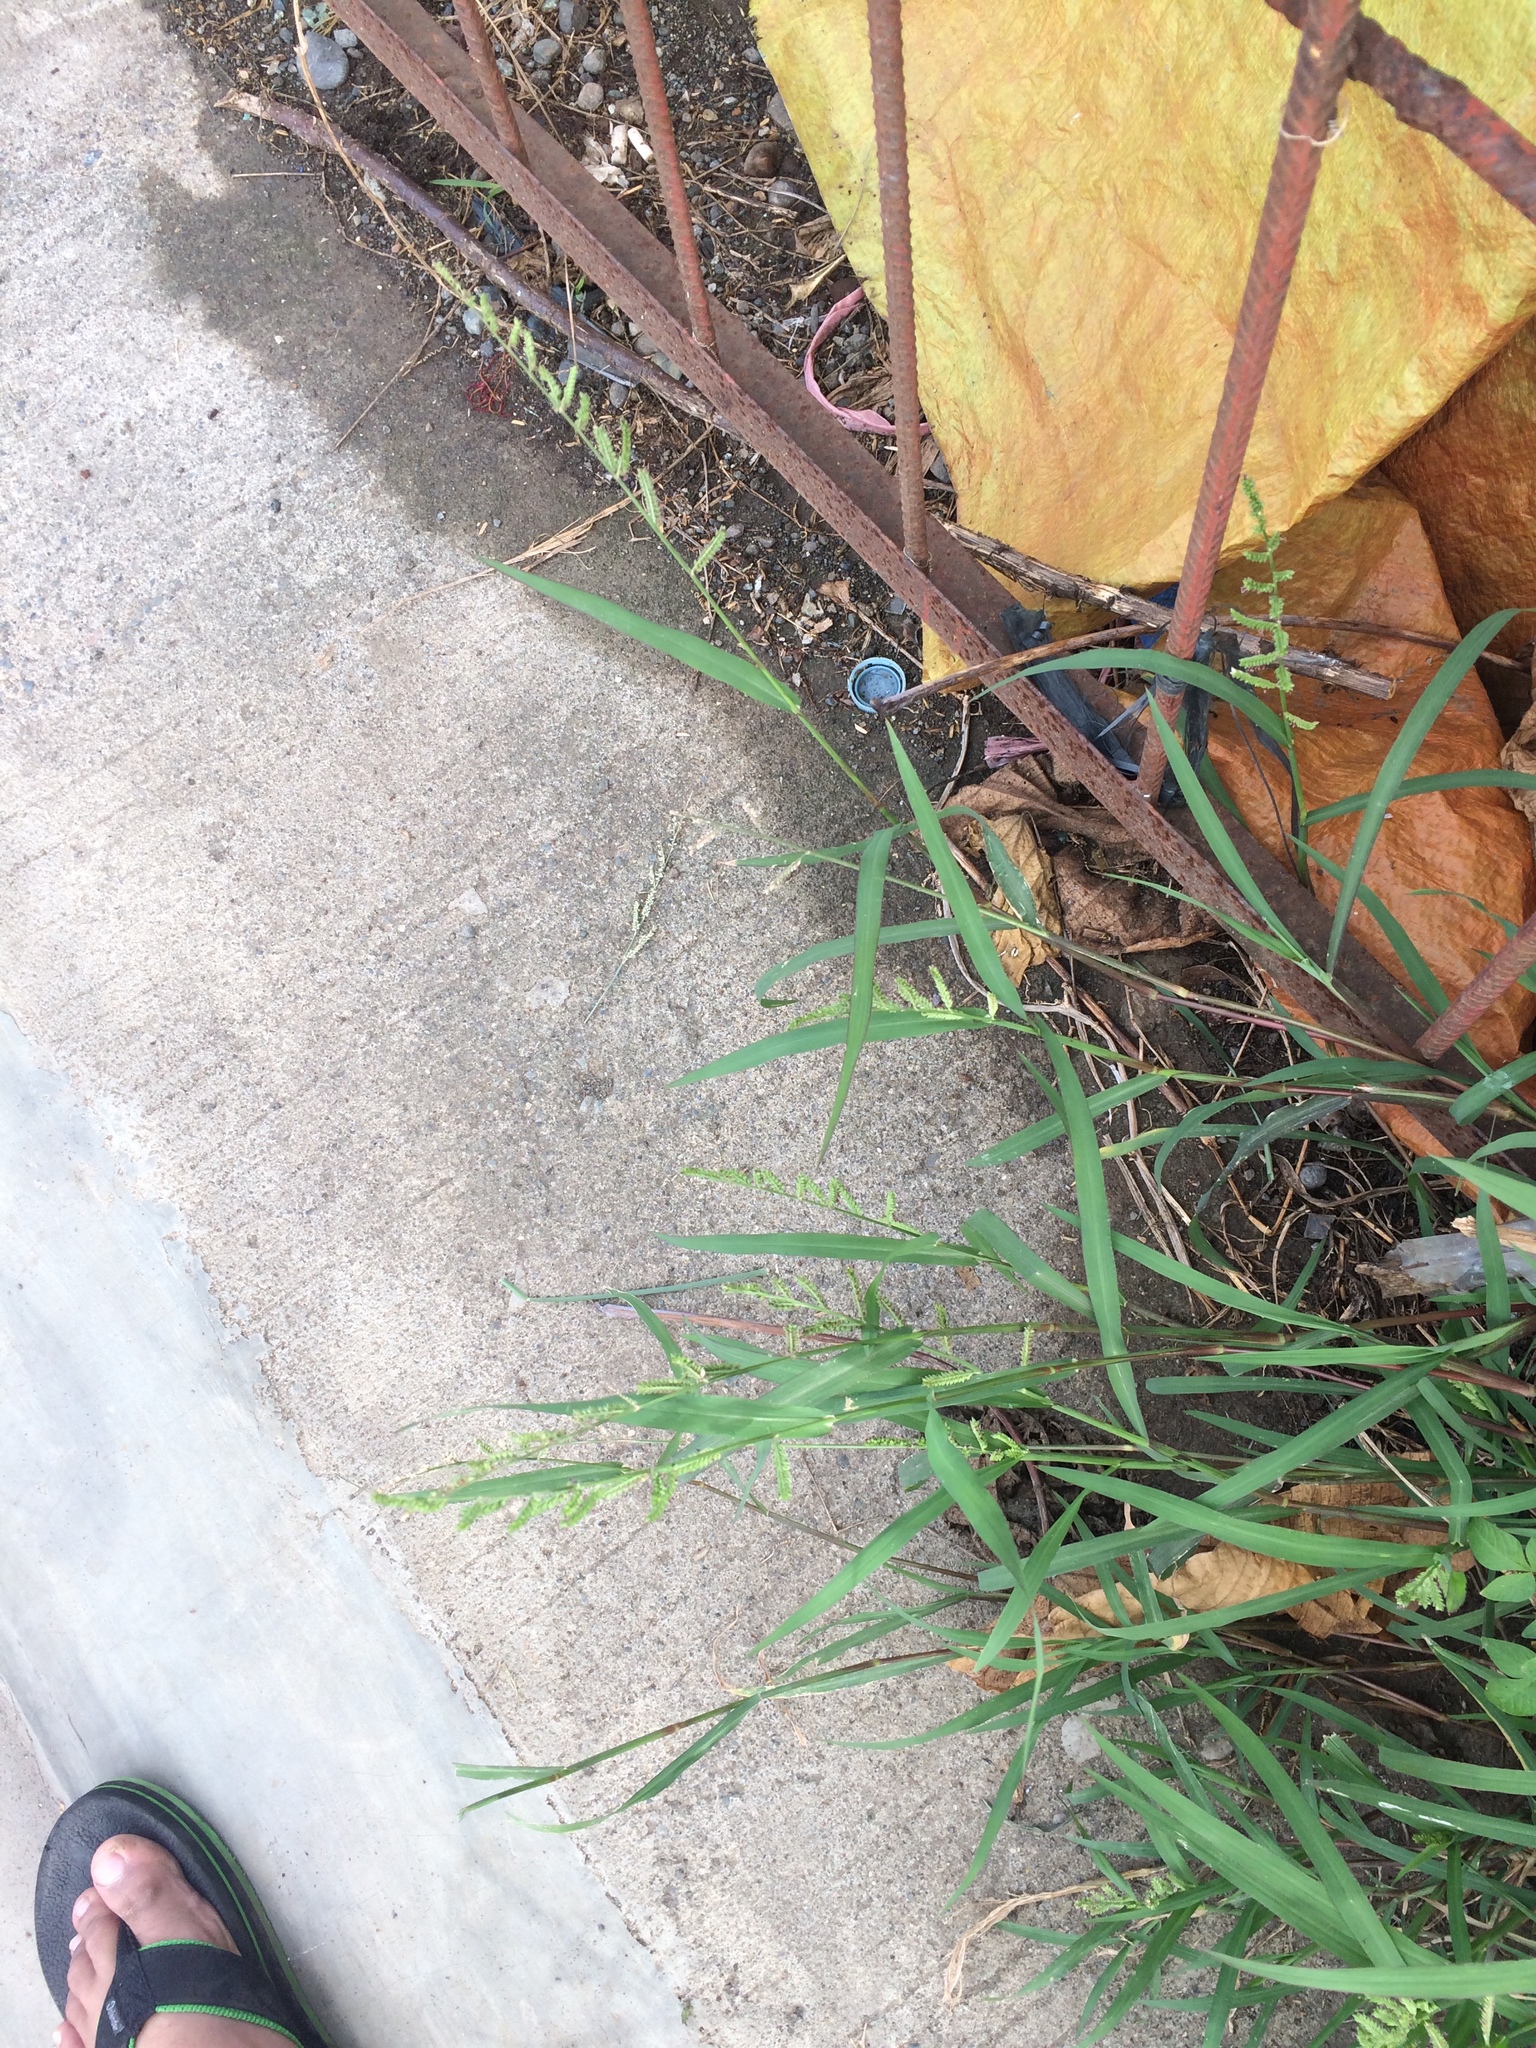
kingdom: Plantae
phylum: Tracheophyta
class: Liliopsida
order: Poales
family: Poaceae
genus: Echinochloa
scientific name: Echinochloa colonum
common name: Jungle rice
